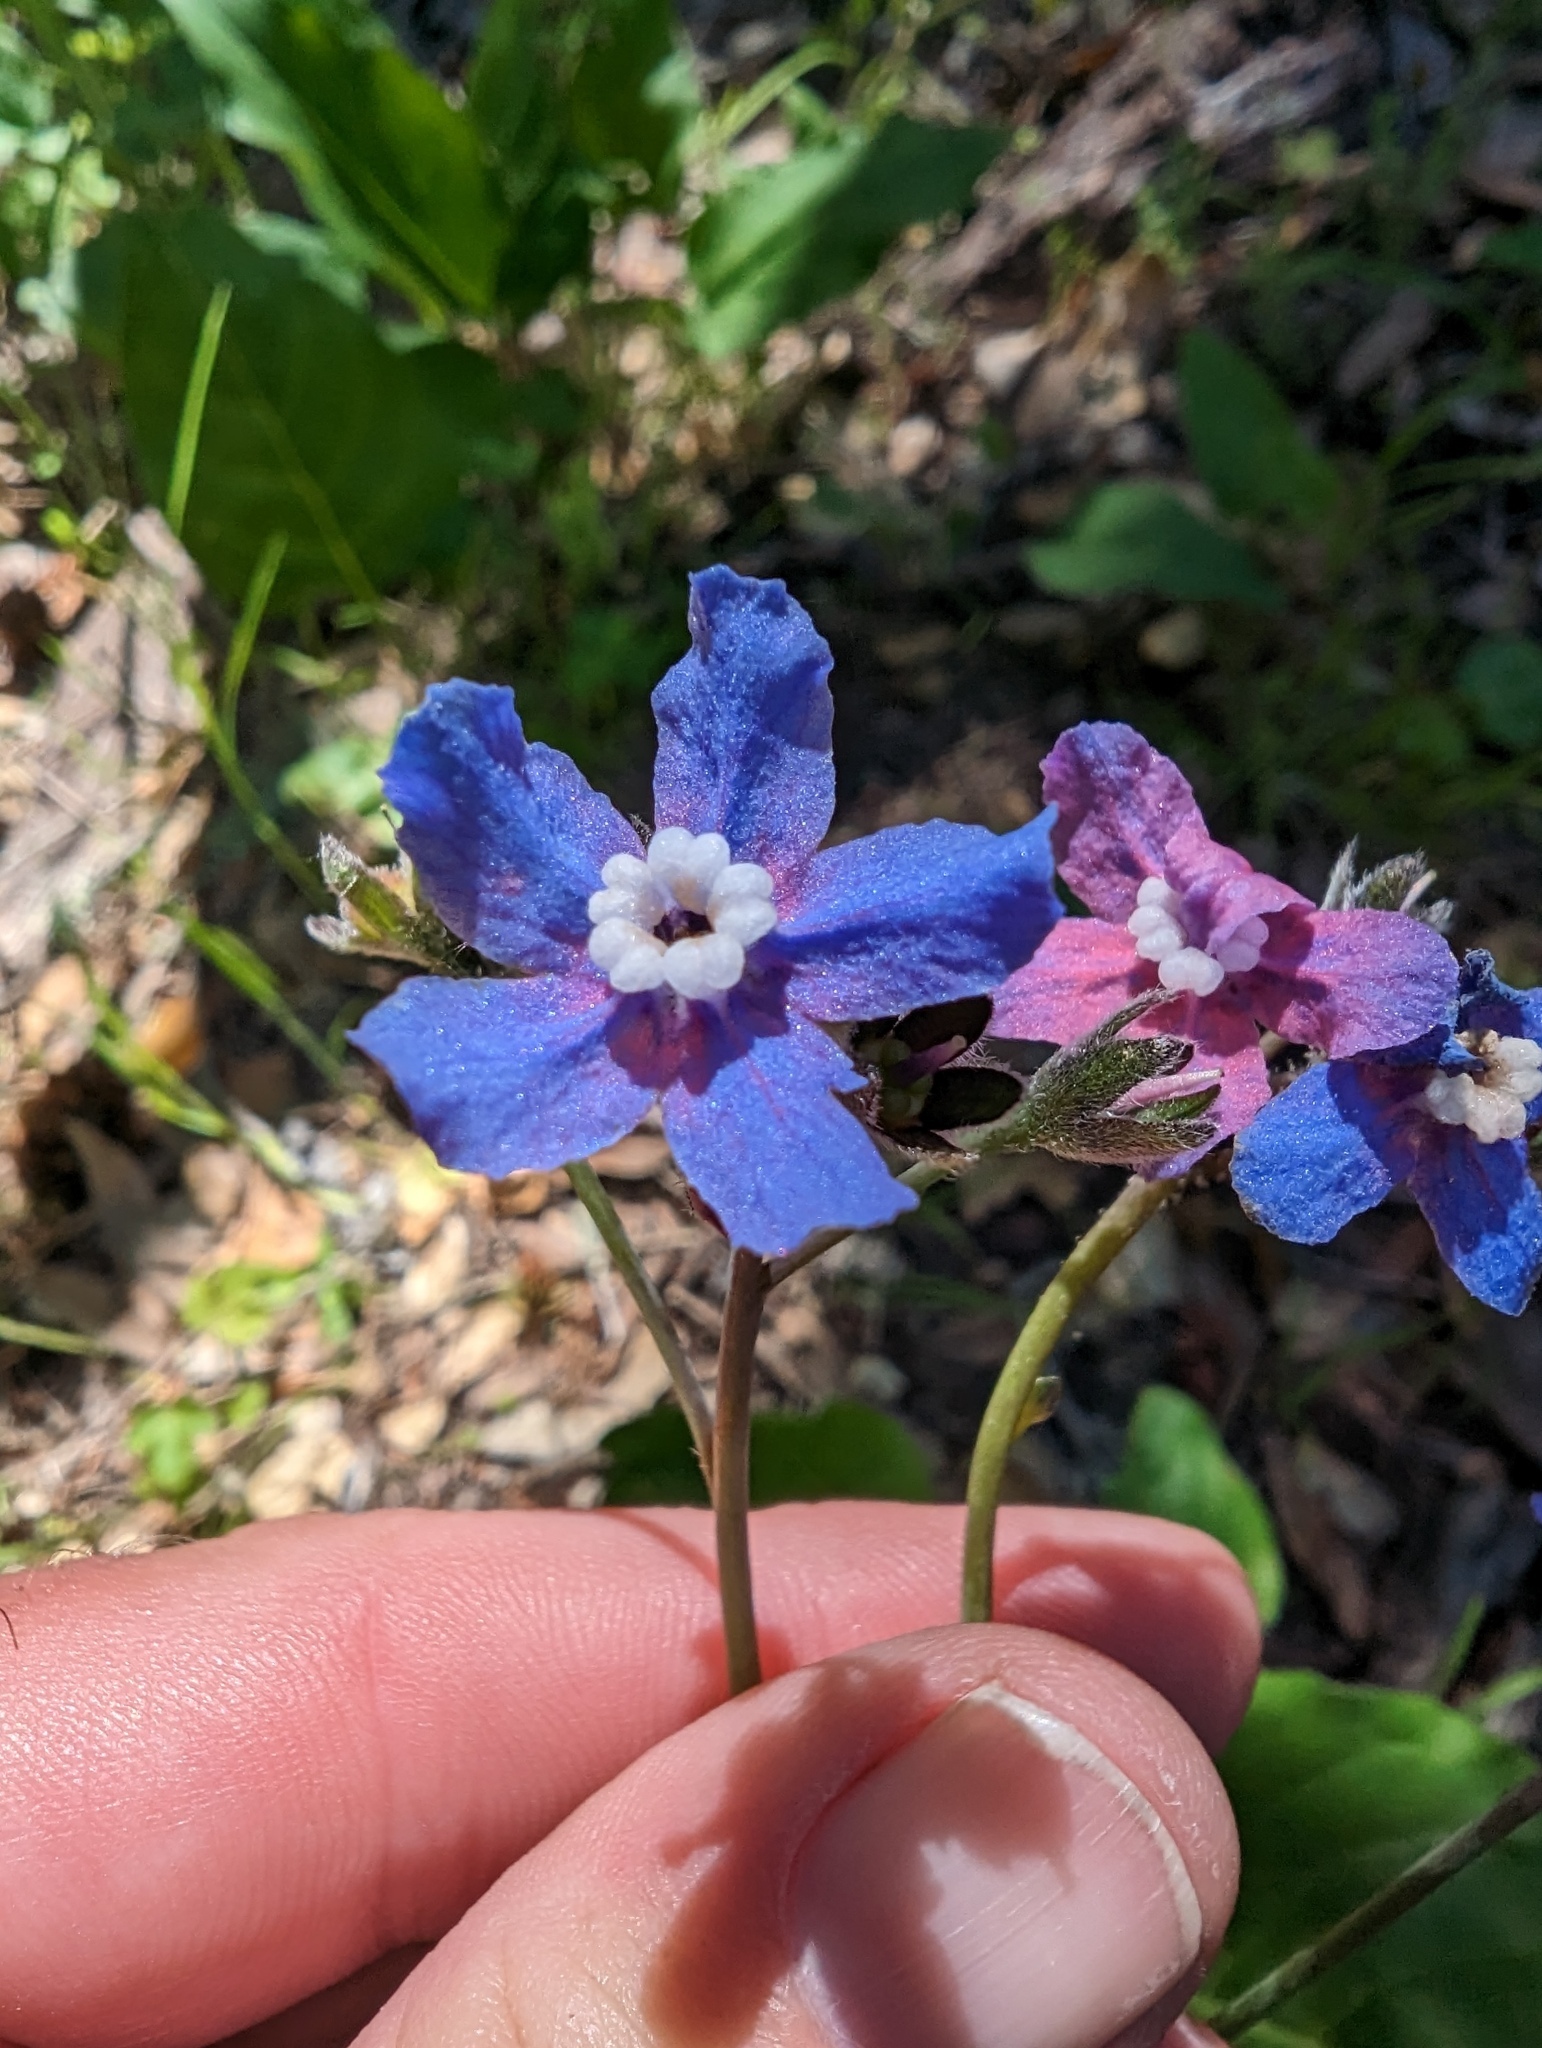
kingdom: Plantae
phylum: Tracheophyta
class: Magnoliopsida
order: Boraginales
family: Boraginaceae
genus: Adelinia
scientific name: Adelinia grande
